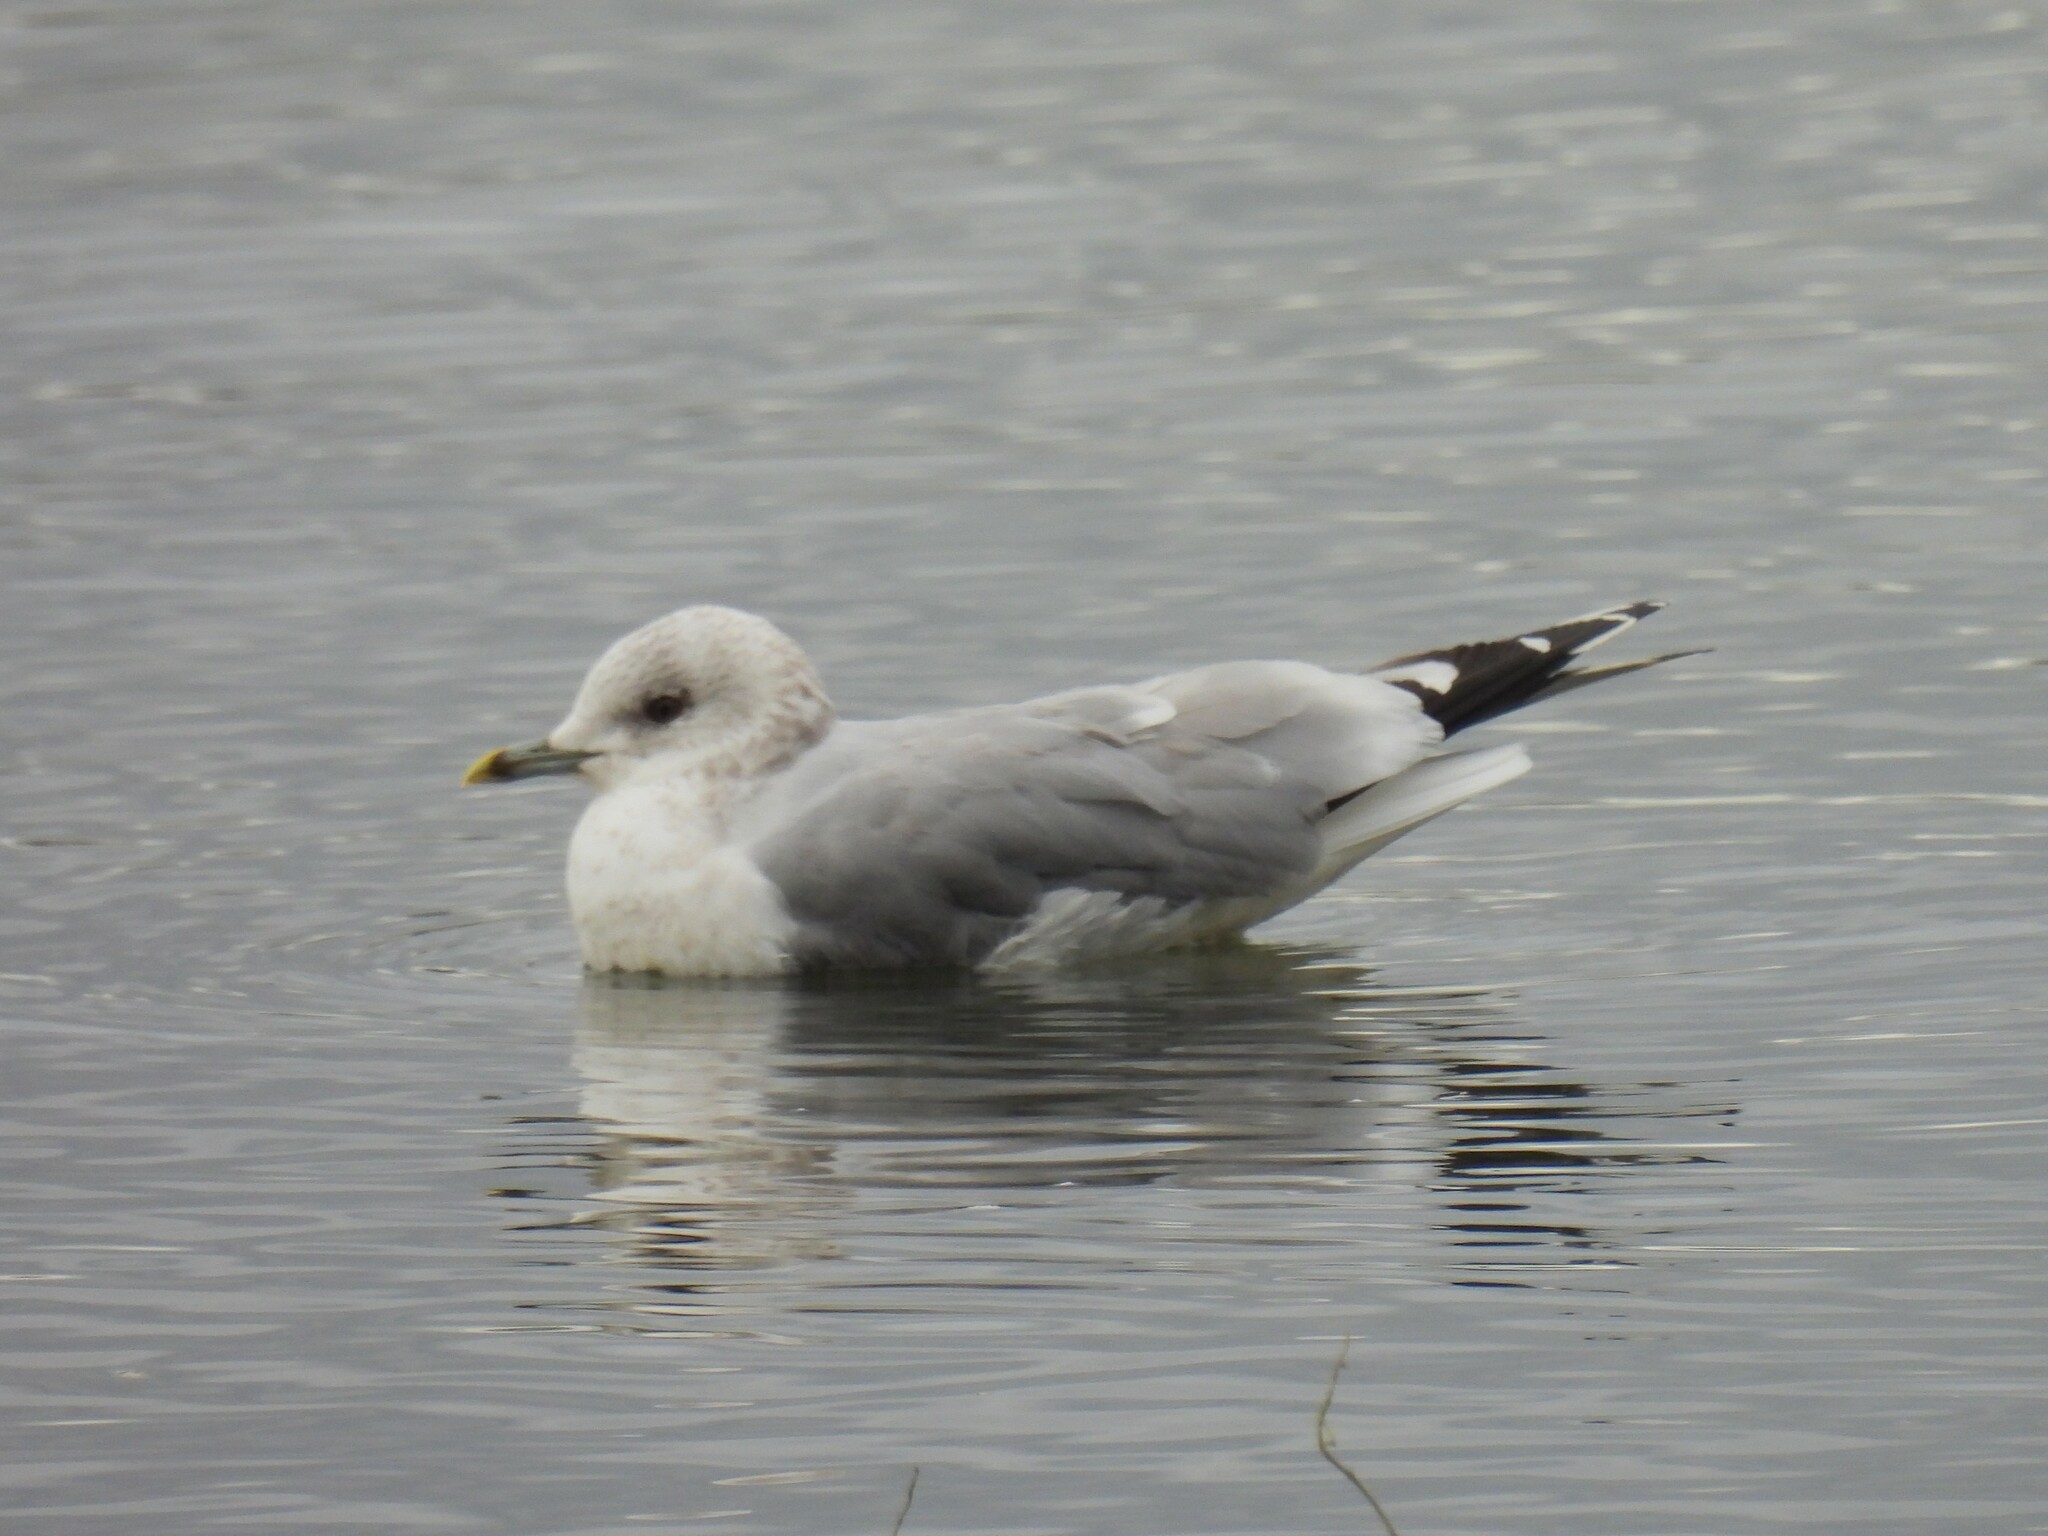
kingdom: Animalia
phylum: Chordata
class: Aves
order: Charadriiformes
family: Laridae
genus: Larus
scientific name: Larus canus
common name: Mew gull
